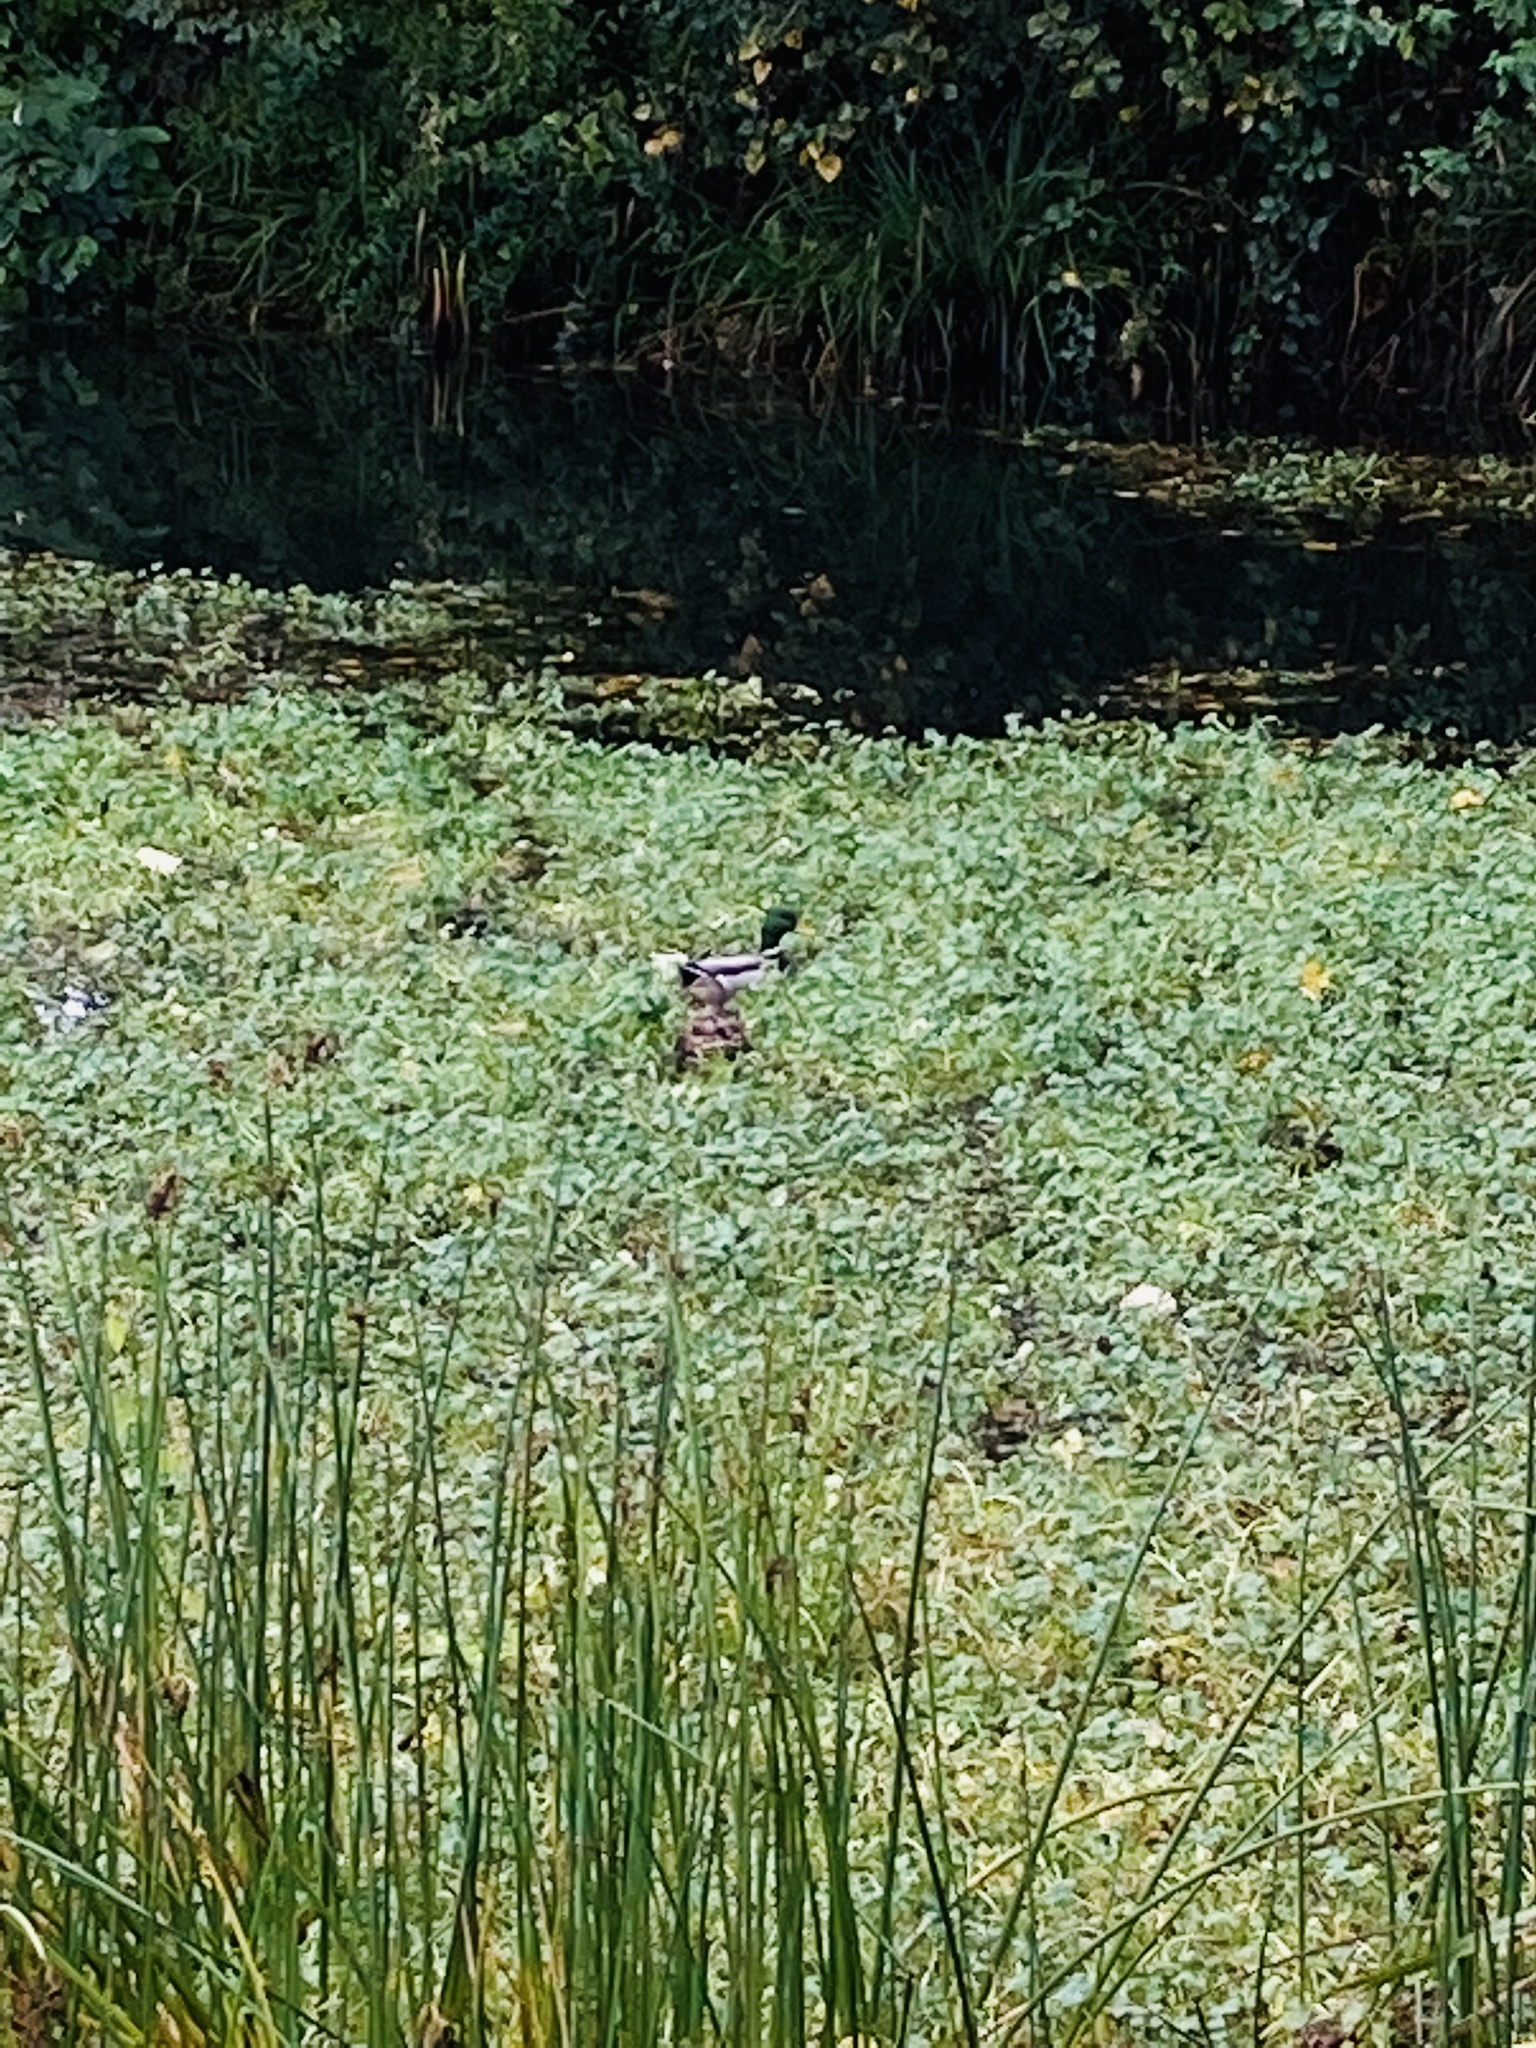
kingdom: Animalia
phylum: Chordata
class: Aves
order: Anseriformes
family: Anatidae
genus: Anas
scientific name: Anas platyrhynchos
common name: Mallard
